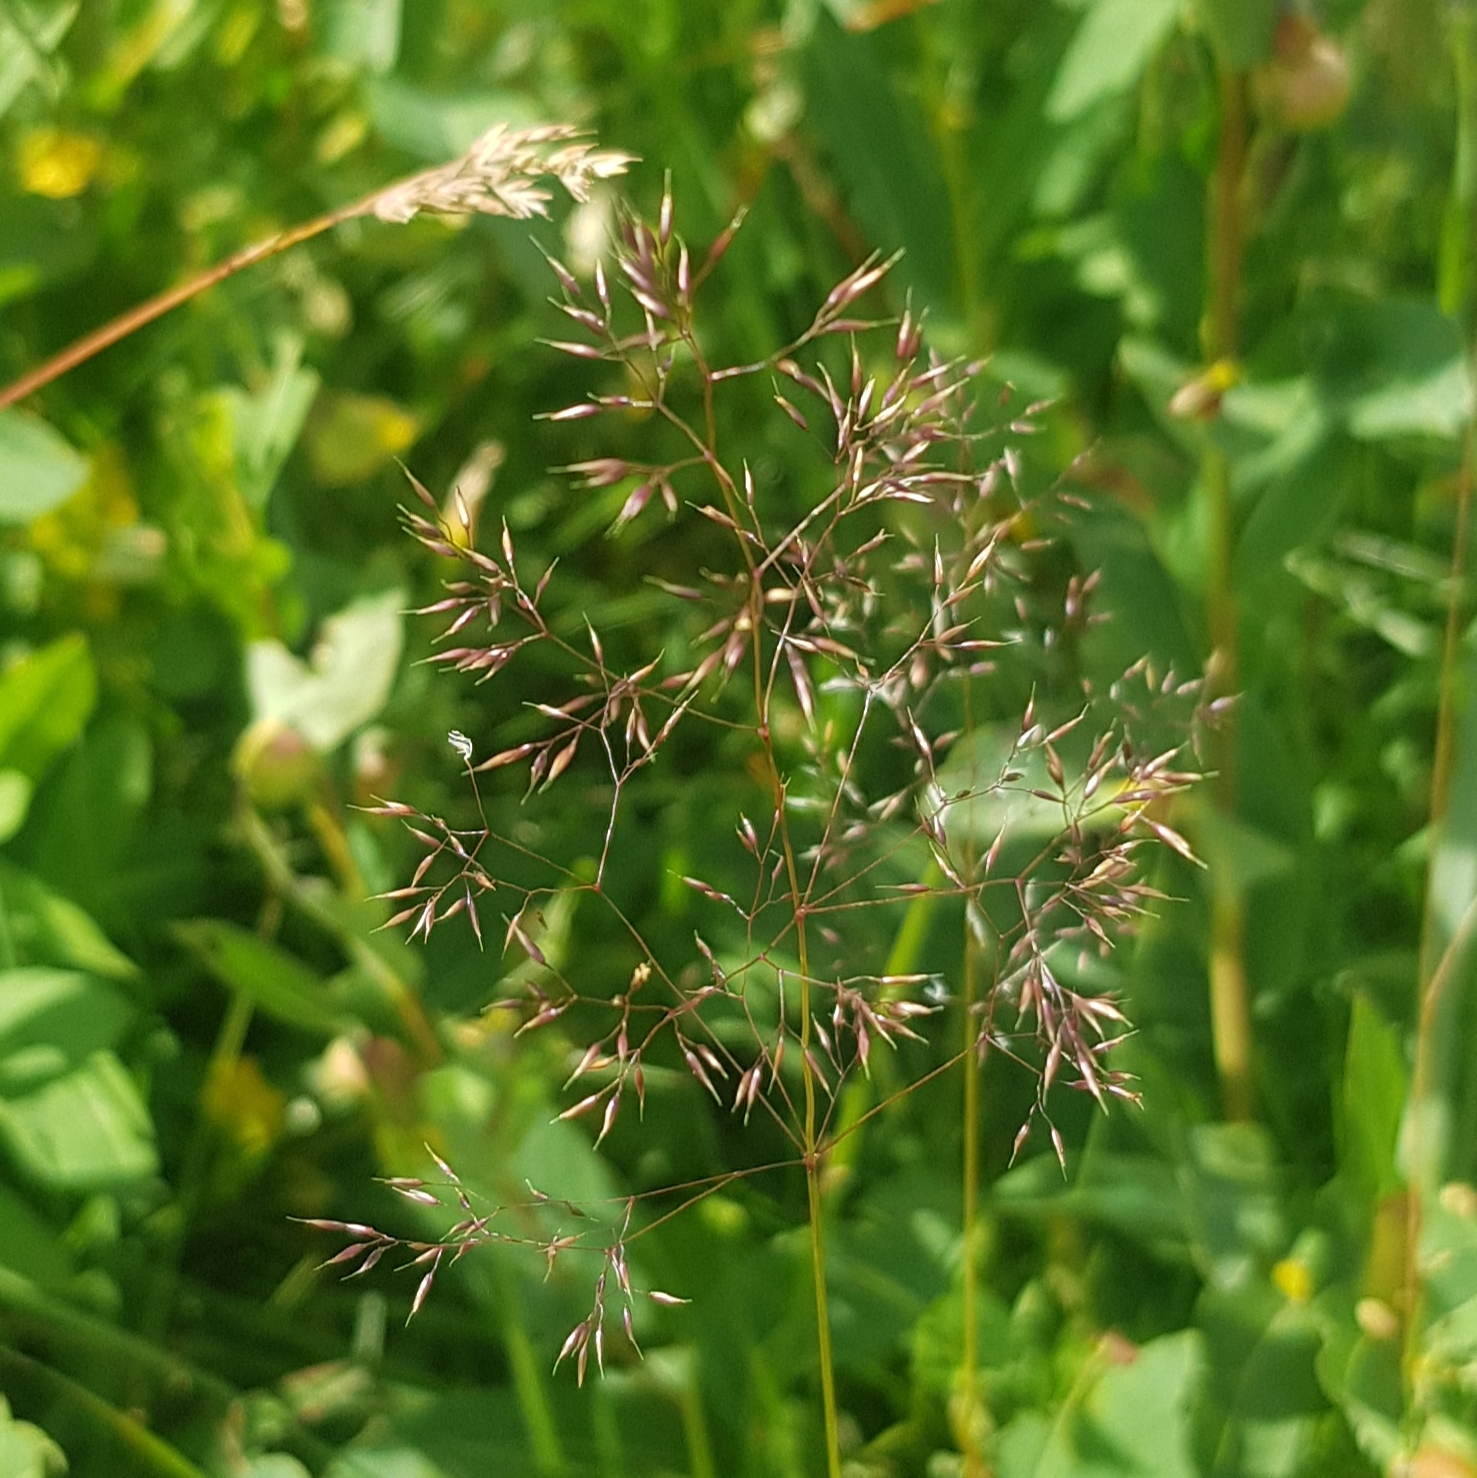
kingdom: Plantae
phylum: Tracheophyta
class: Liliopsida
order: Poales
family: Poaceae
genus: Agrostis
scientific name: Agrostis vinealis
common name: Brown bent
